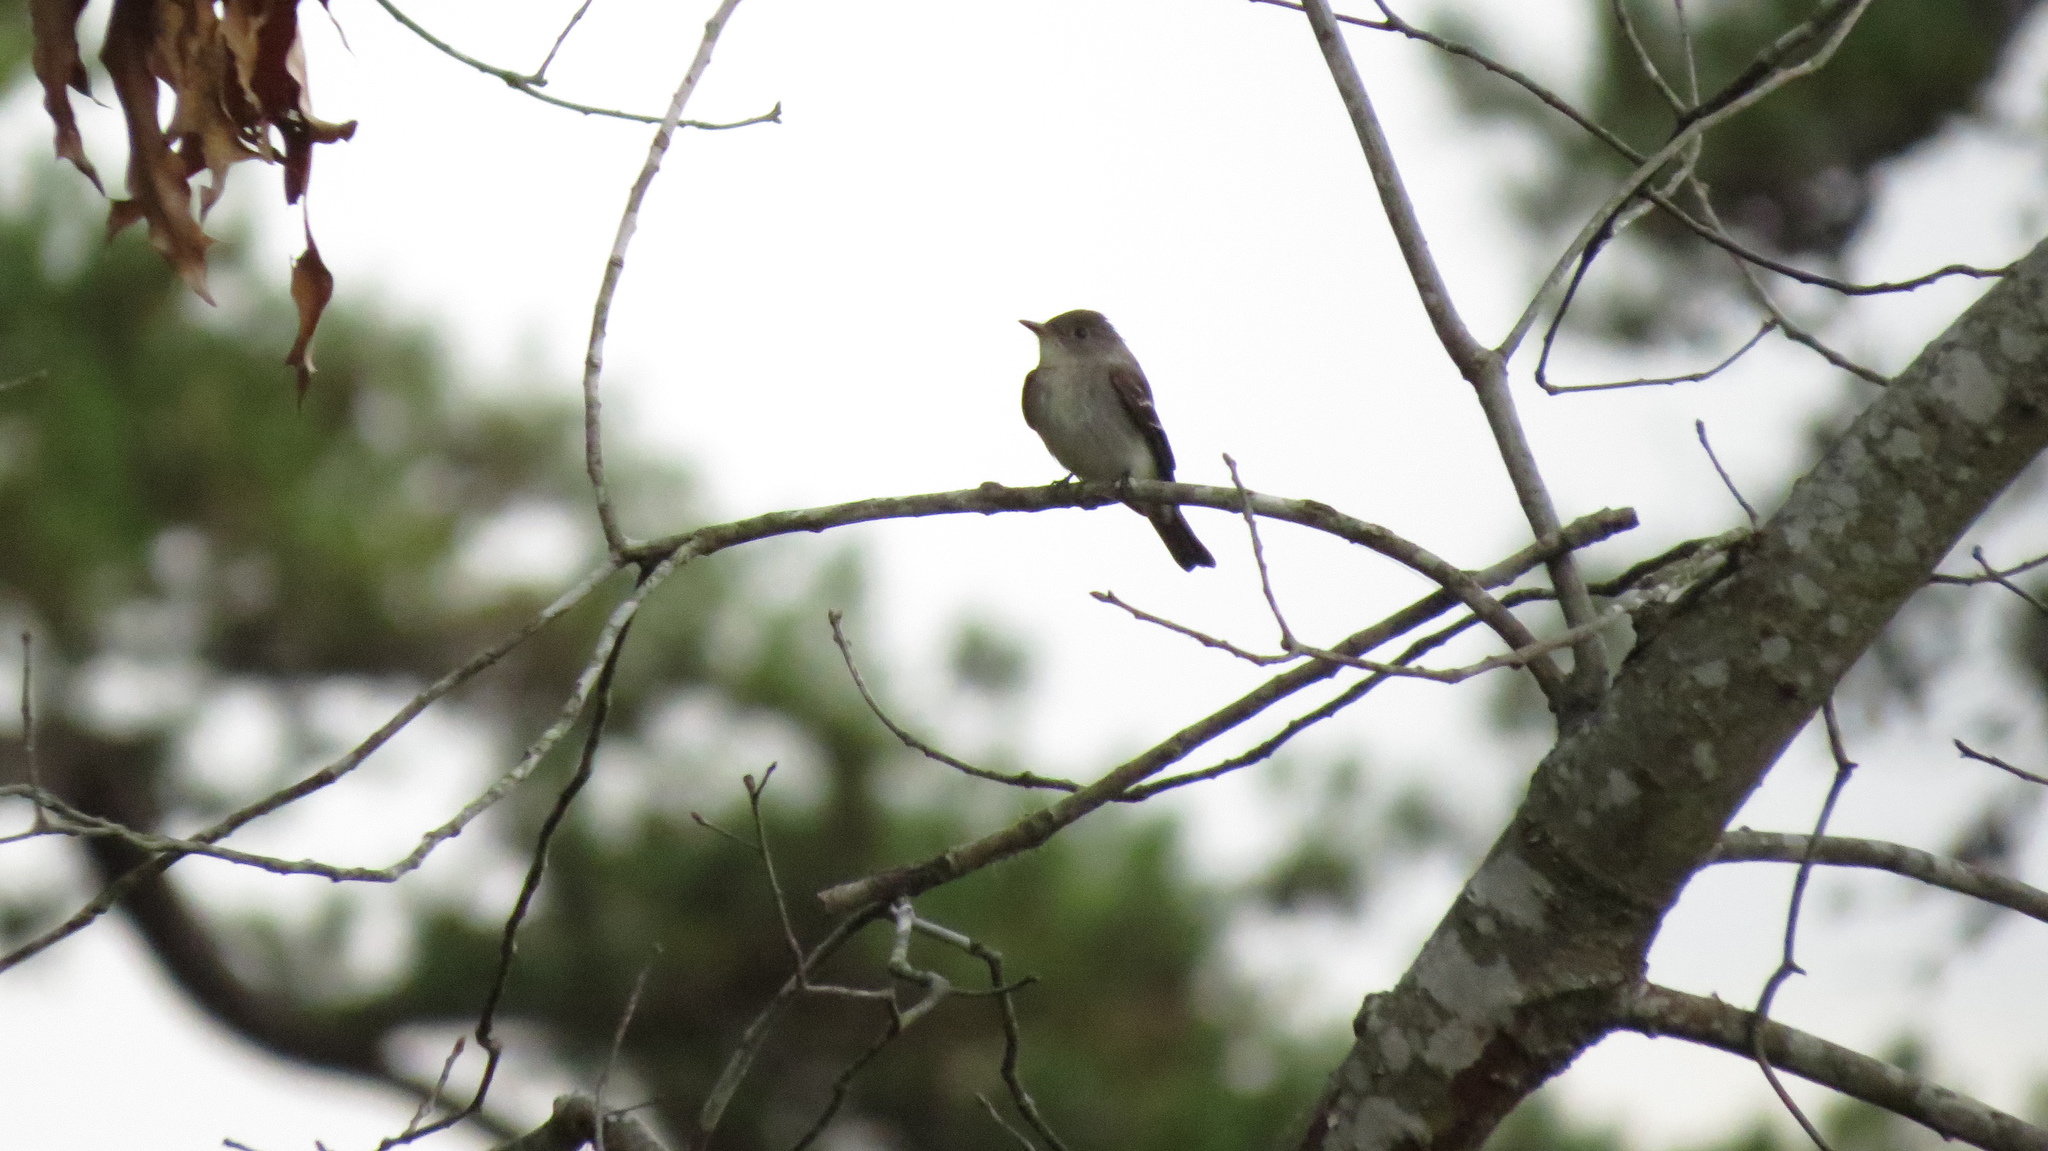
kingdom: Animalia
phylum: Chordata
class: Aves
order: Passeriformes
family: Tyrannidae
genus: Contopus
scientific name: Contopus virens
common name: Eastern wood-pewee
